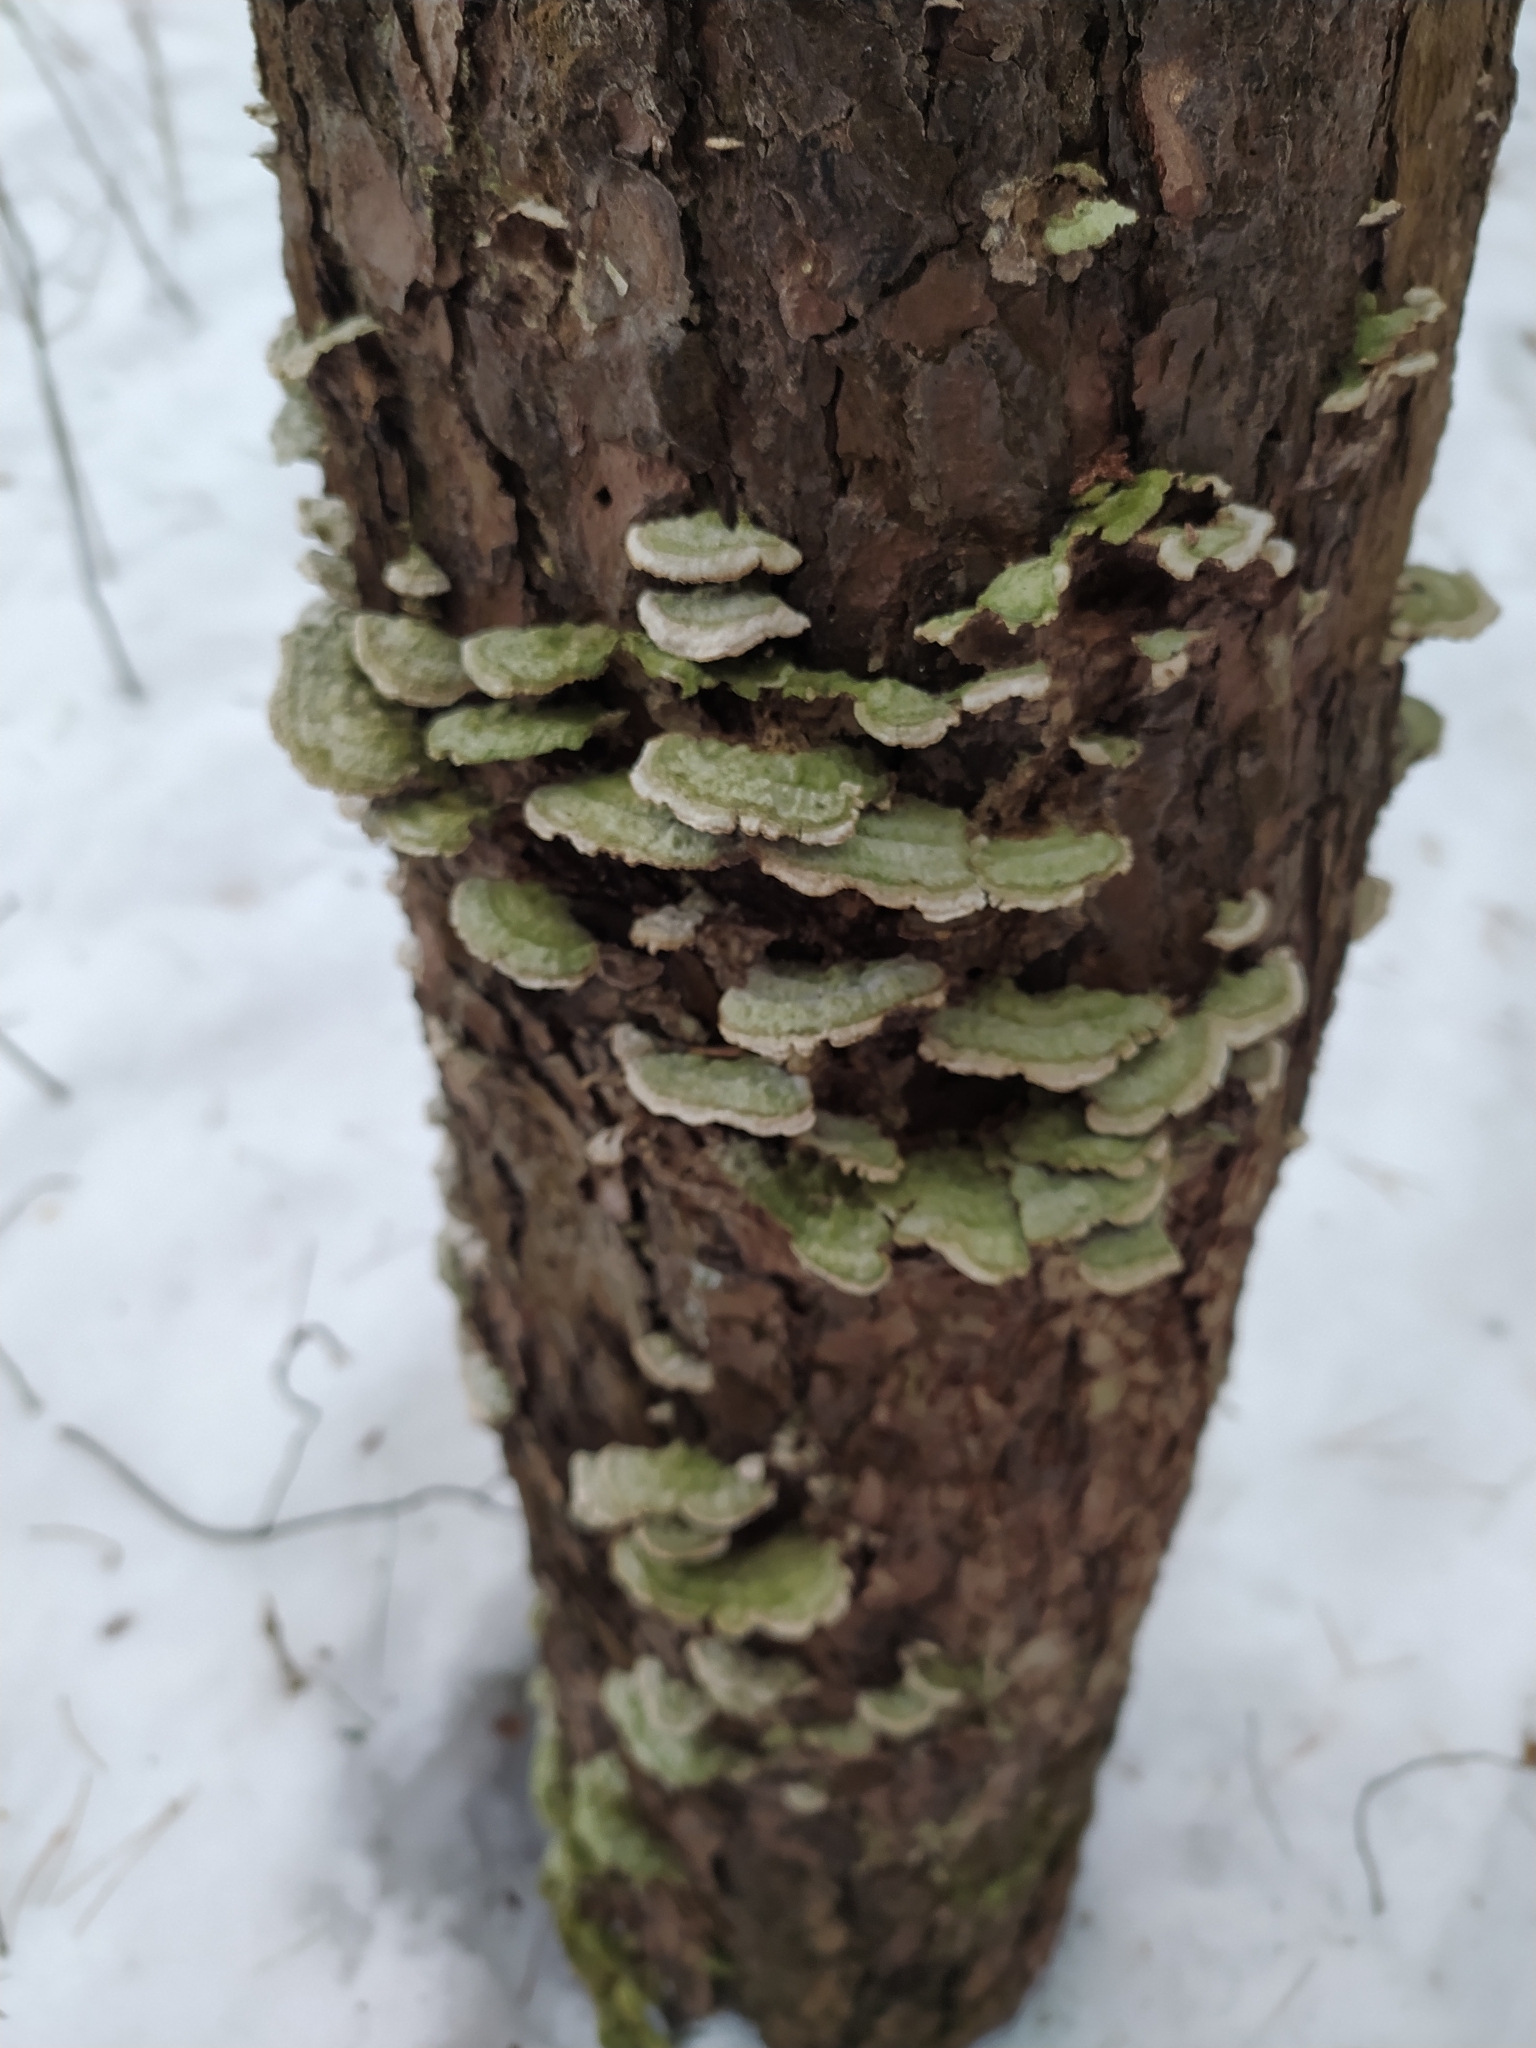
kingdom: Fungi
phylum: Basidiomycota
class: Agaricomycetes
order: Hymenochaetales
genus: Trichaptum
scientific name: Trichaptum abietinum
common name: Purplepore bracket
